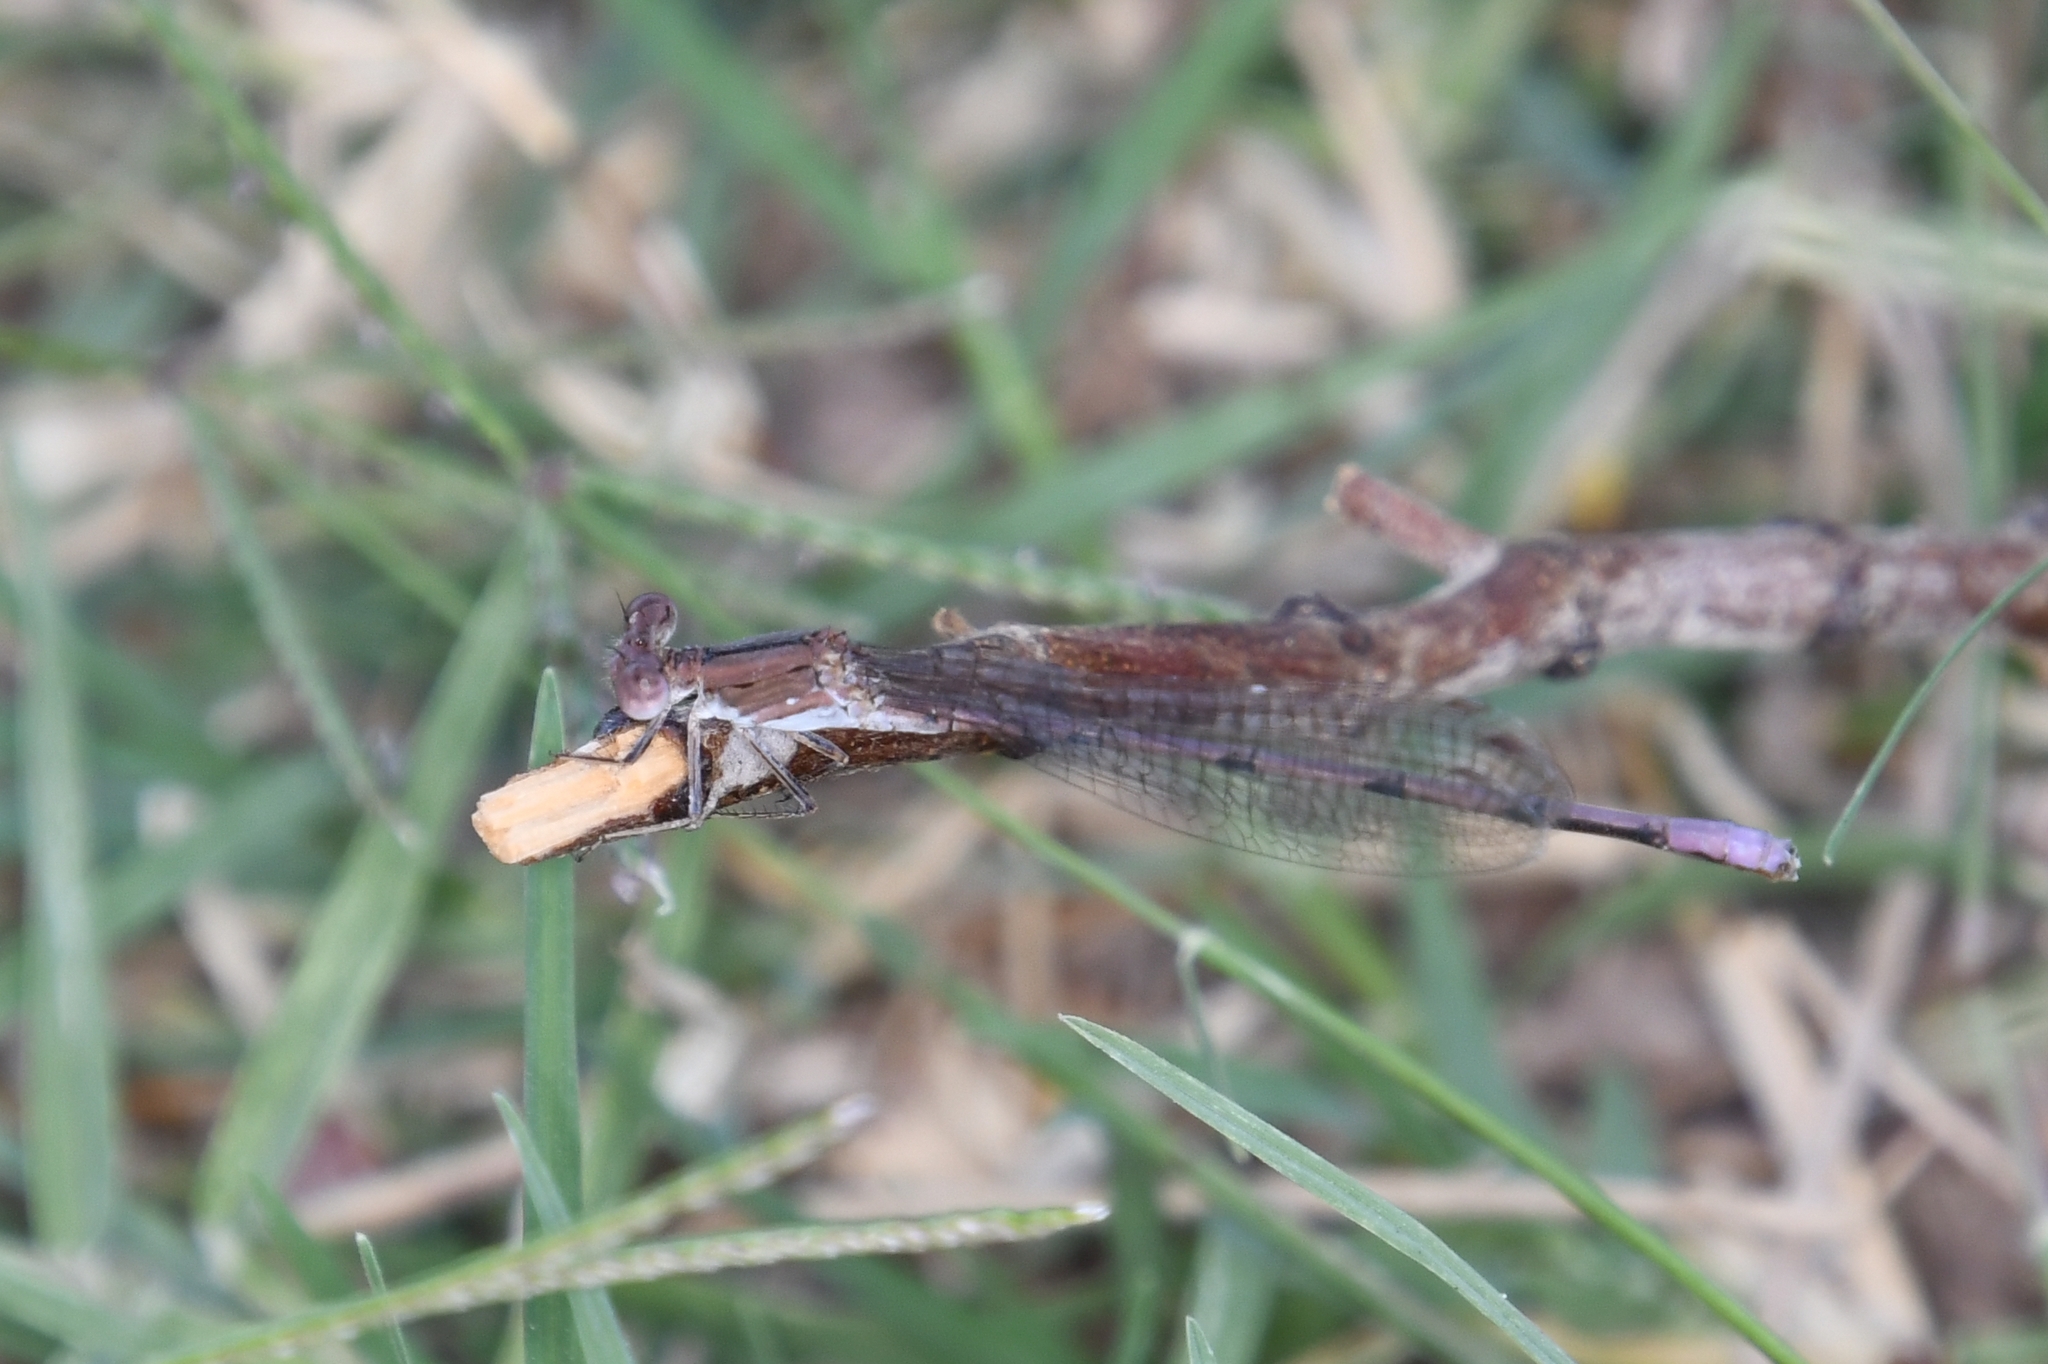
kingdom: Animalia
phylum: Arthropoda
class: Insecta
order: Odonata
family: Coenagrionidae
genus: Argia
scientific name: Argia pallens
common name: Amethyst dancer
